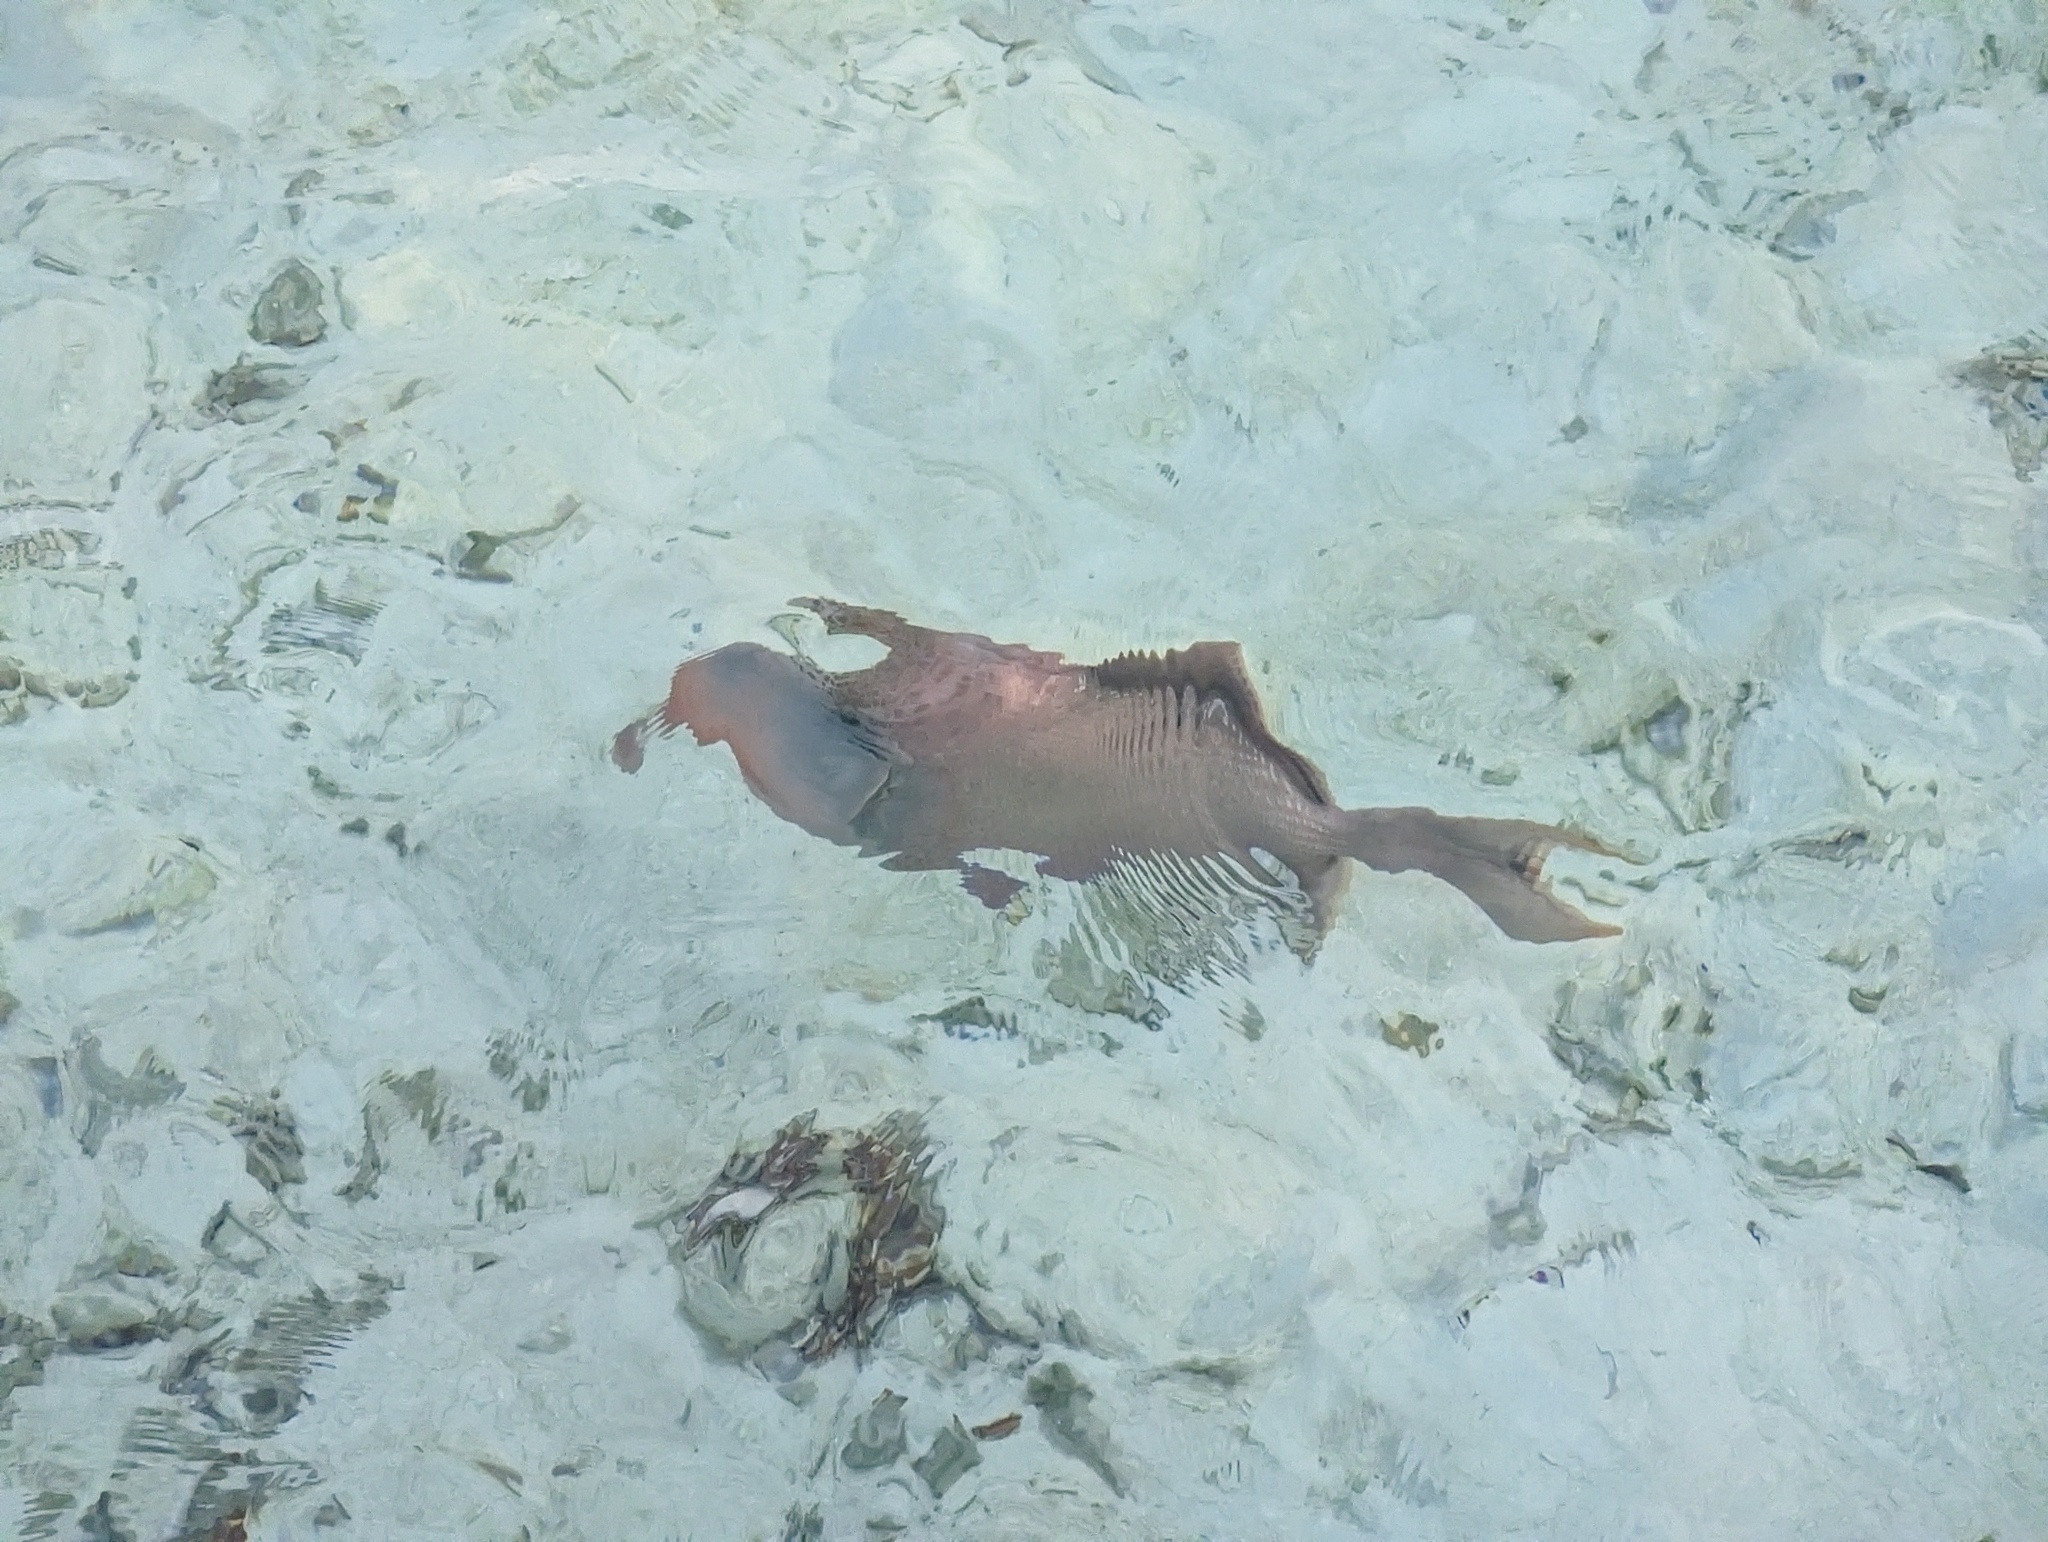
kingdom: Animalia
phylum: Chordata
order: Tetraodontiformes
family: Balistidae
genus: Pseudobalistes
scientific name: Pseudobalistes flavimarginatus
